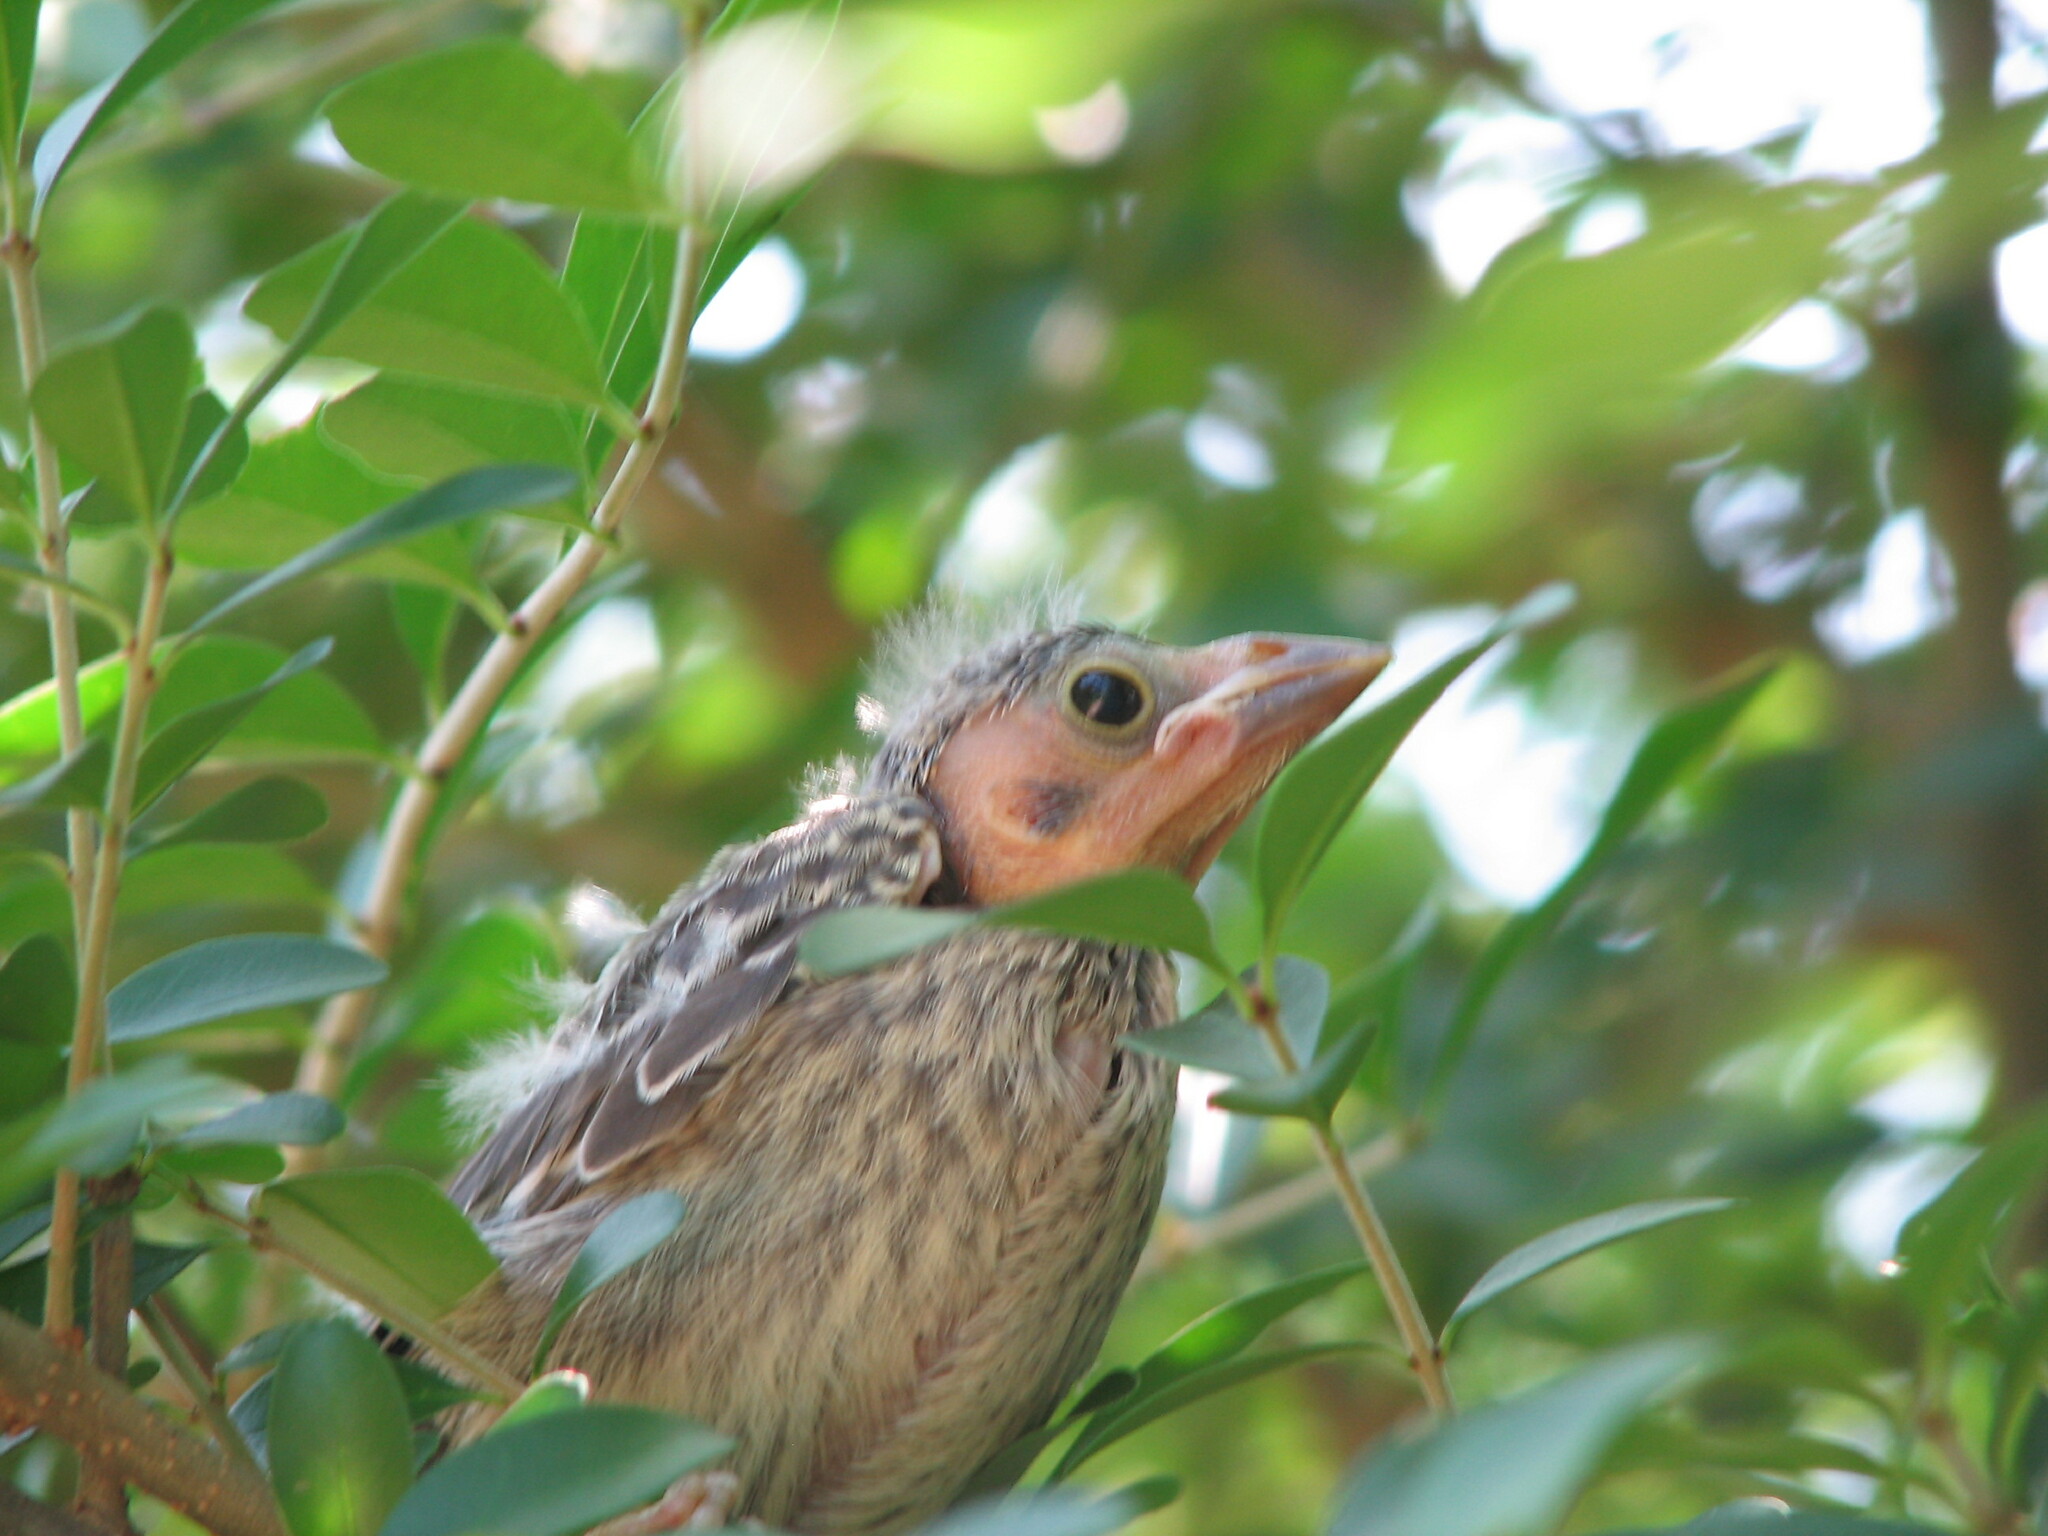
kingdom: Animalia
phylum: Chordata
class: Aves
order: Passeriformes
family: Cardinalidae
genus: Cardinalis
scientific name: Cardinalis cardinalis
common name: Northern cardinal
